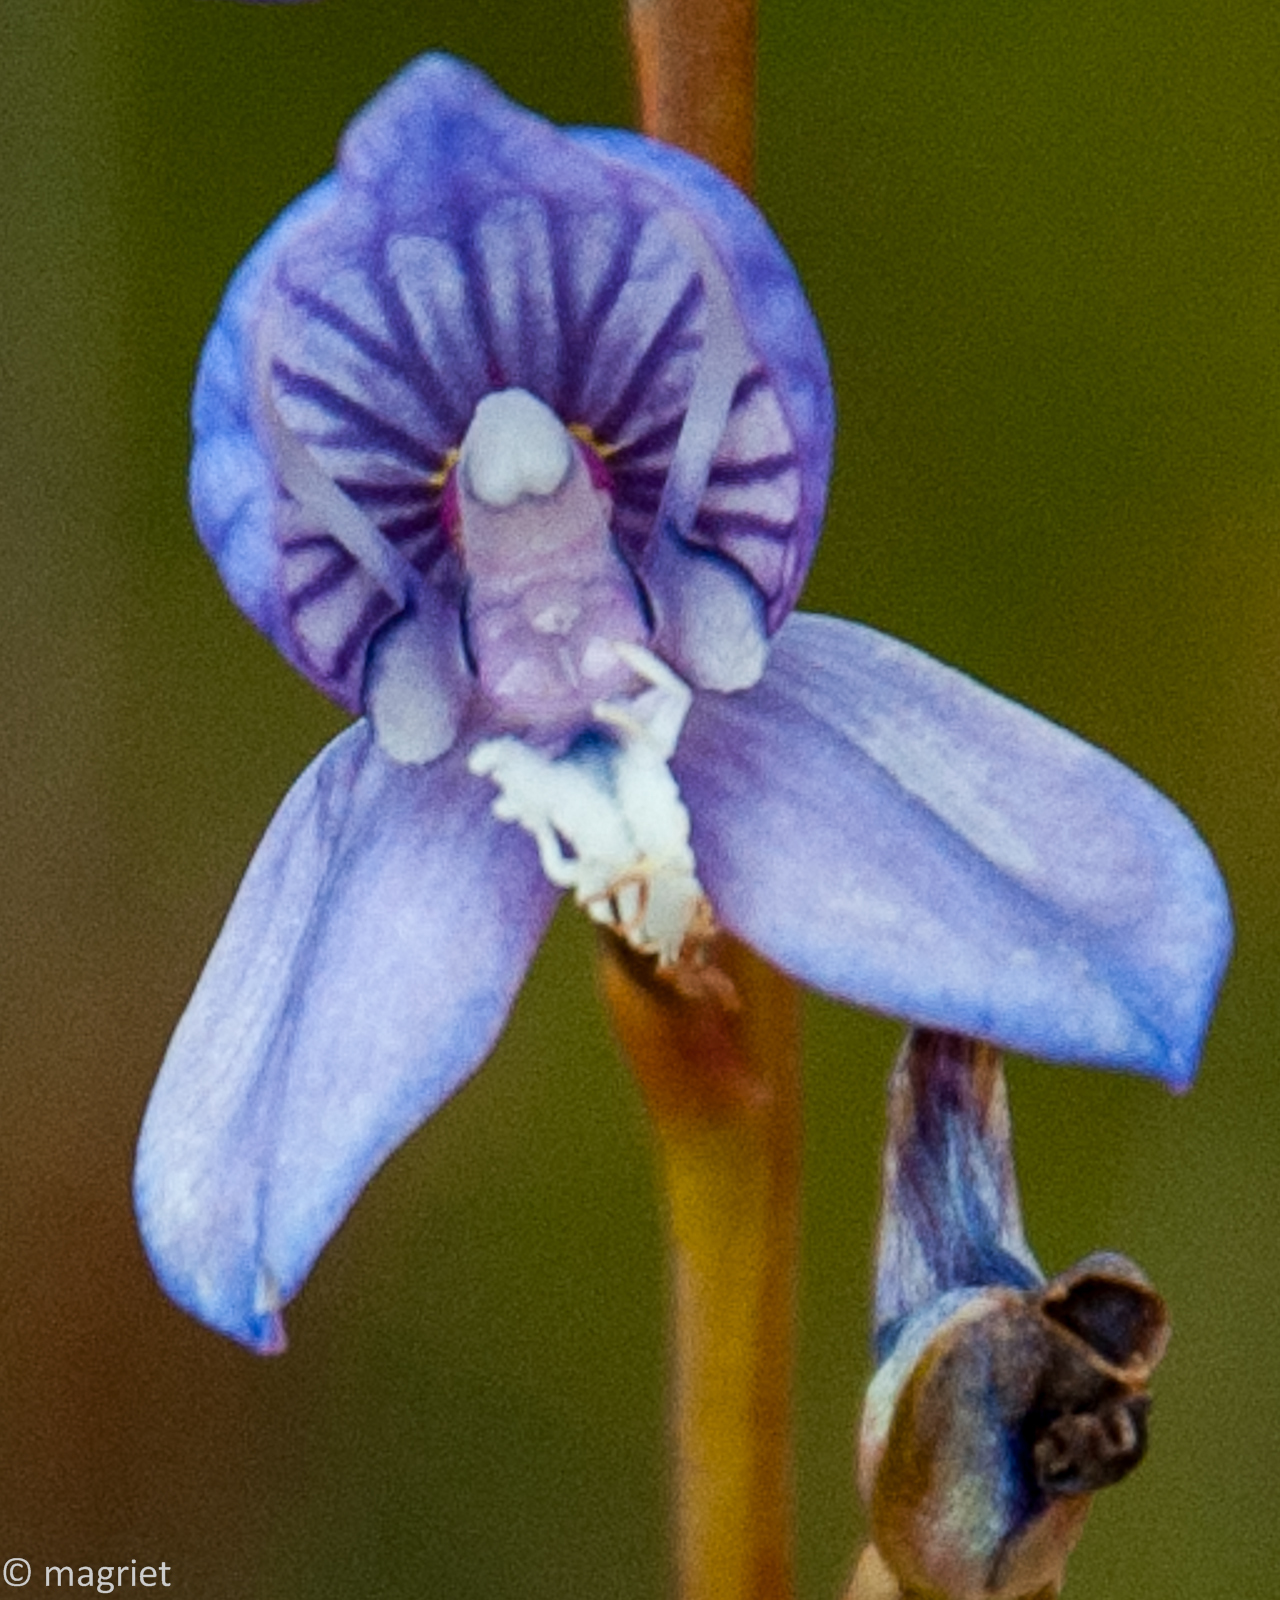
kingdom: Plantae
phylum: Tracheophyta
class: Liliopsida
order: Asparagales
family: Orchidaceae
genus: Disa
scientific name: Disa venusta
